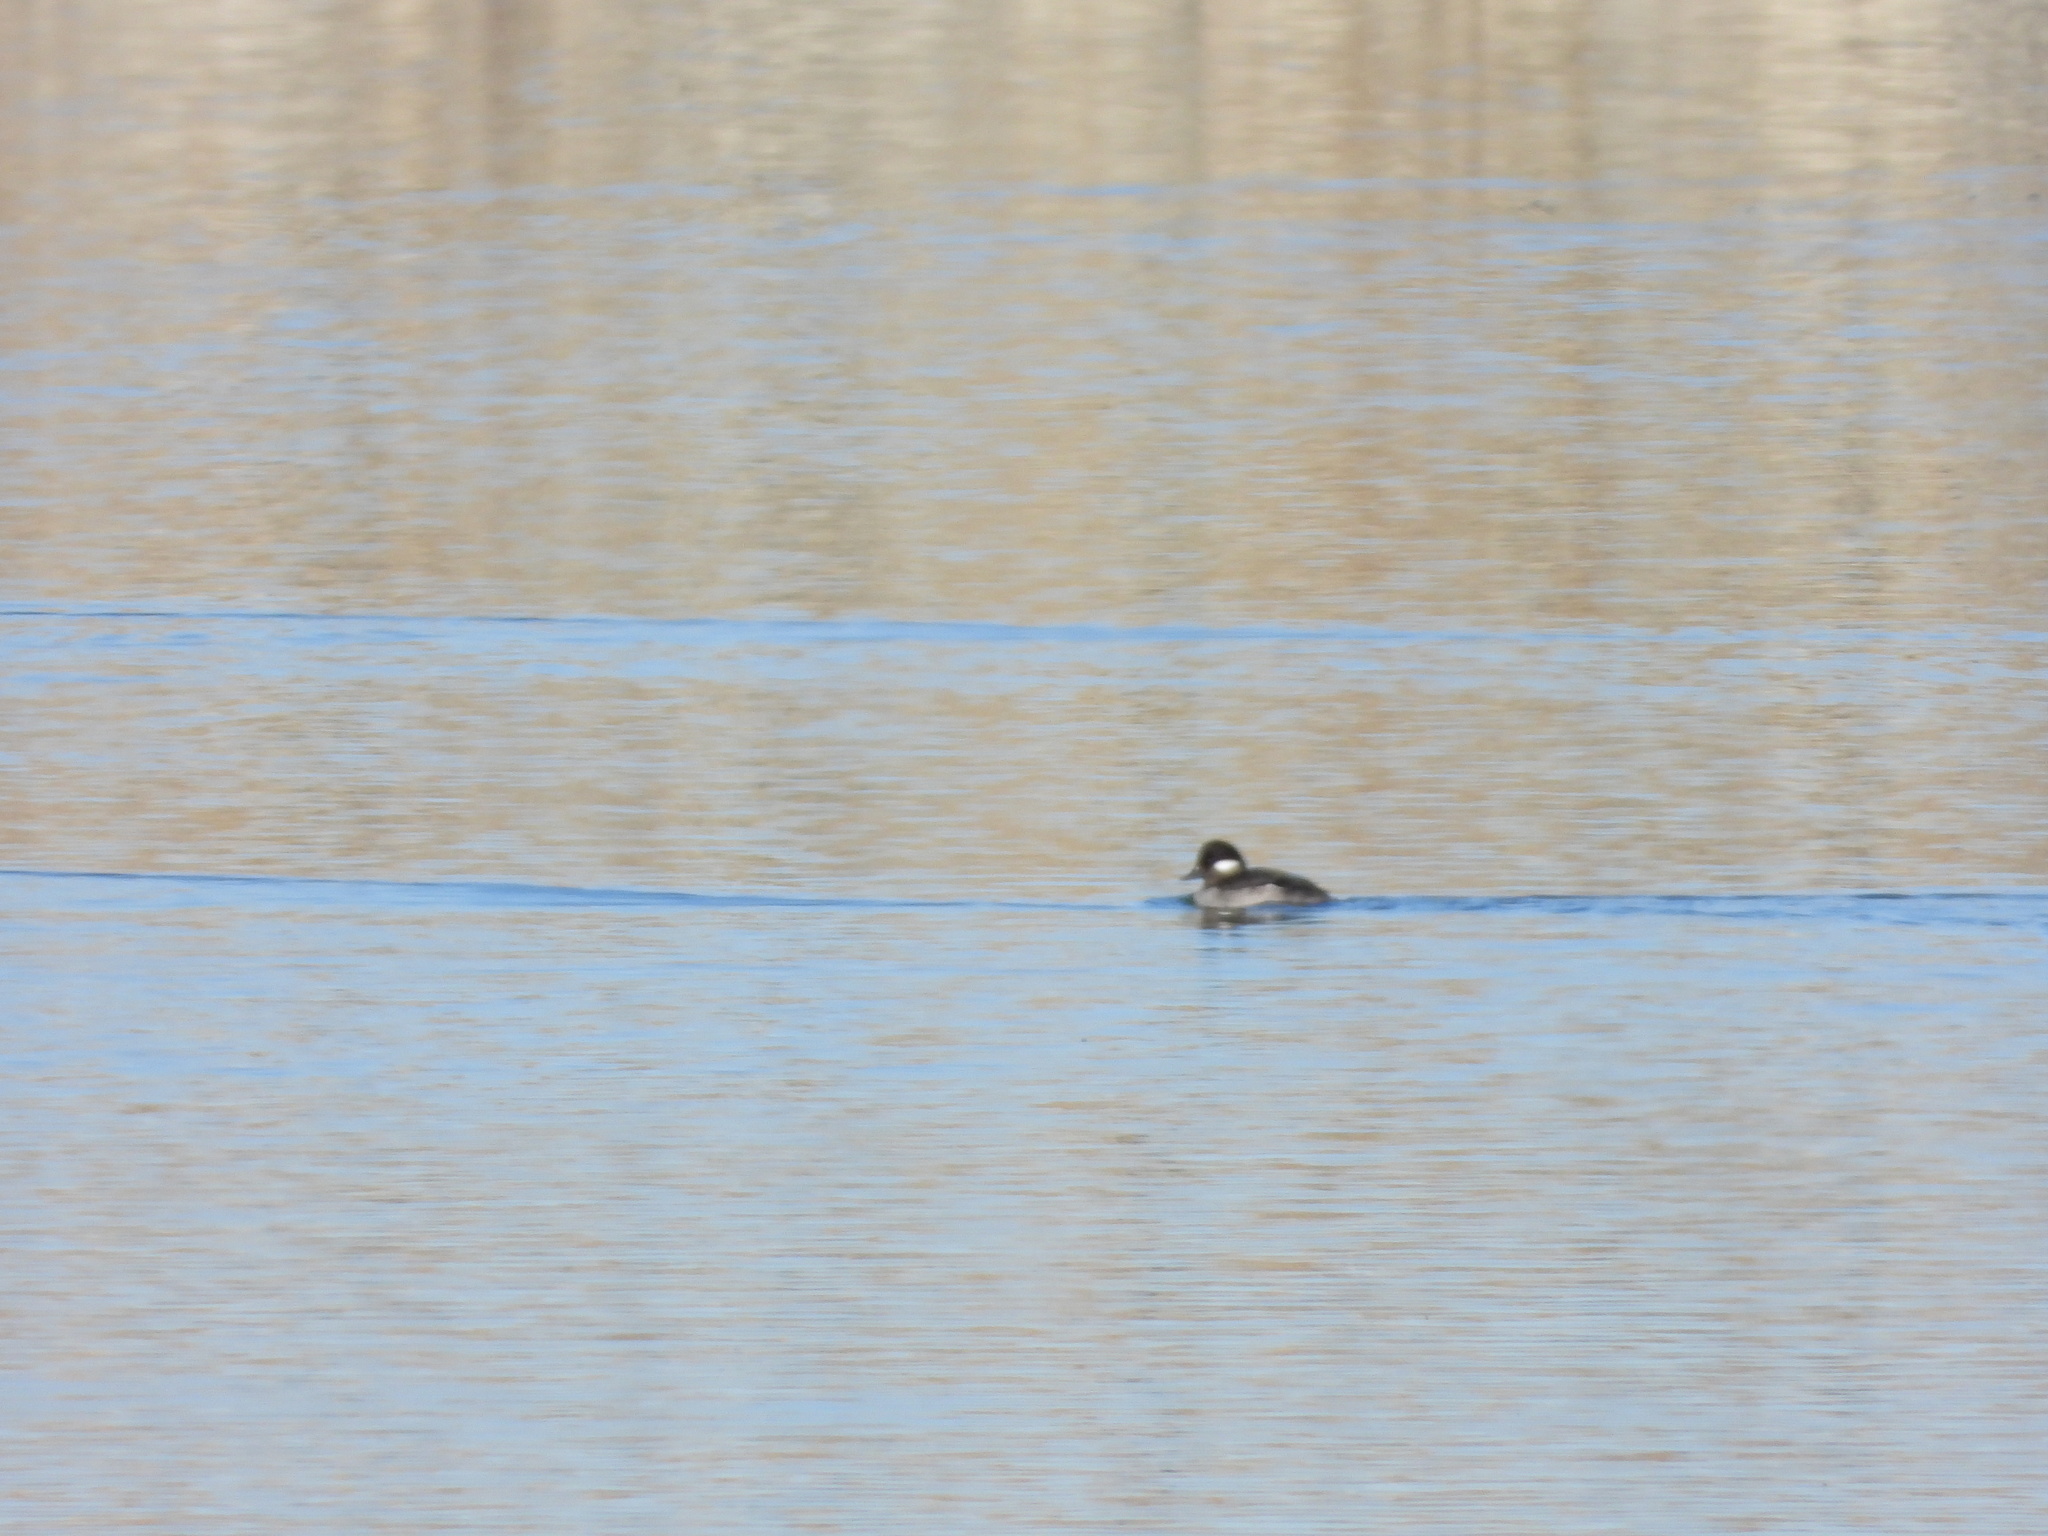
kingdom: Animalia
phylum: Chordata
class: Aves
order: Anseriformes
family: Anatidae
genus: Bucephala
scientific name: Bucephala albeola
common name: Bufflehead
